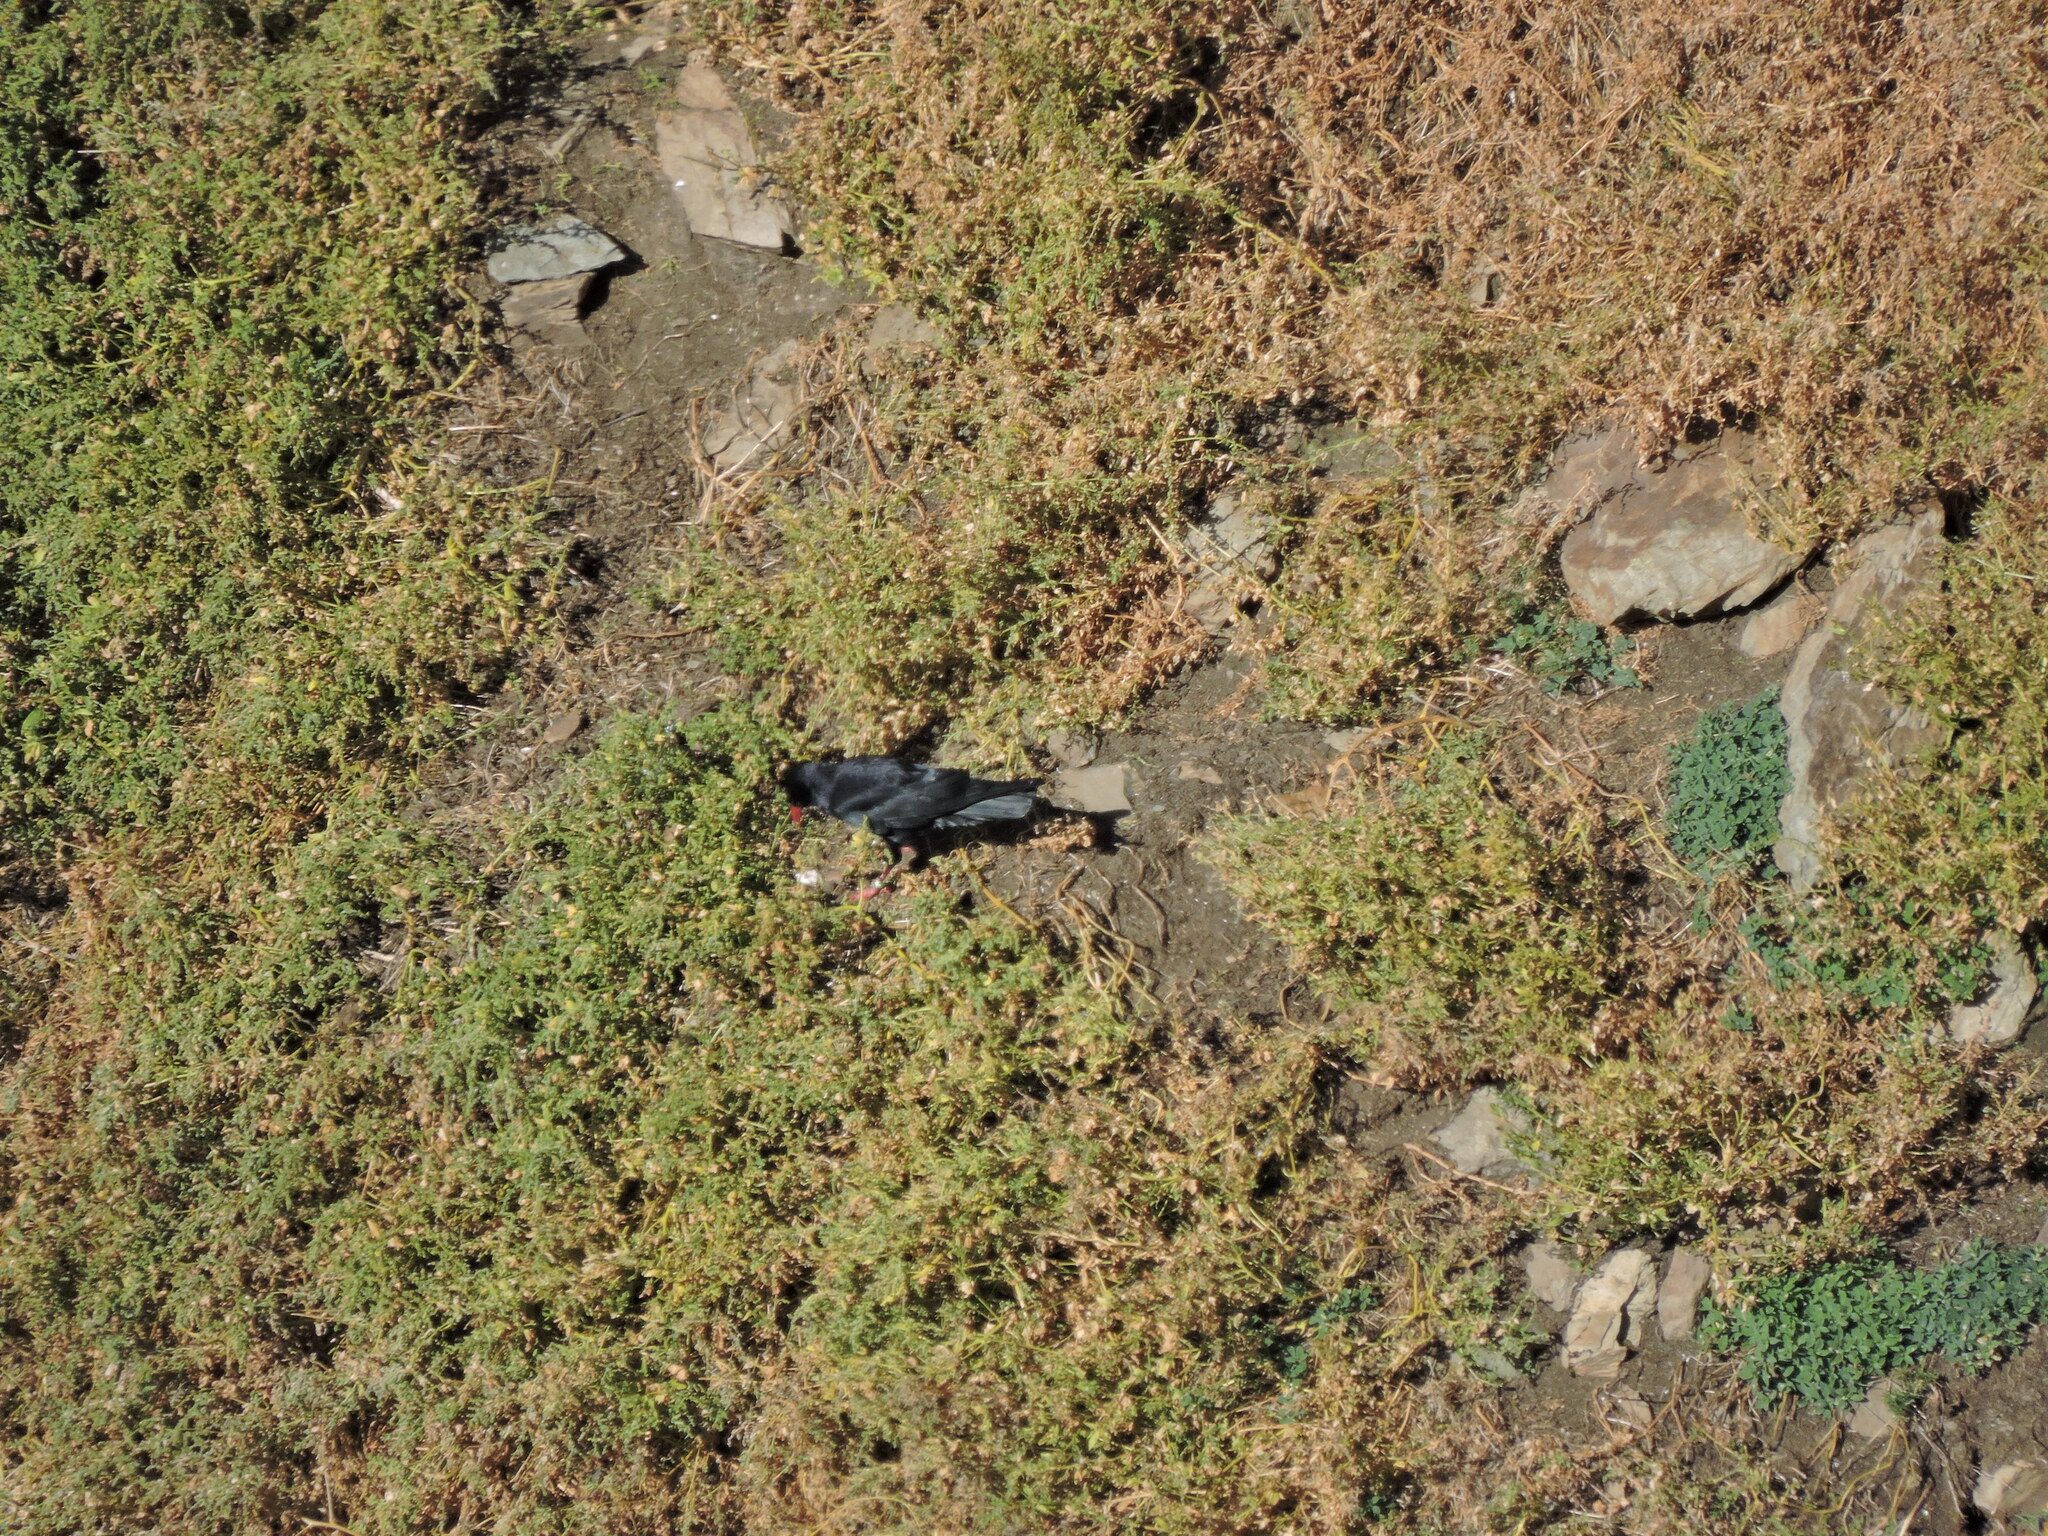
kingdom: Animalia
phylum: Chordata
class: Aves
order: Passeriformes
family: Corvidae
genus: Pyrrhocorax
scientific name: Pyrrhocorax pyrrhocorax
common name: Red-billed chough
